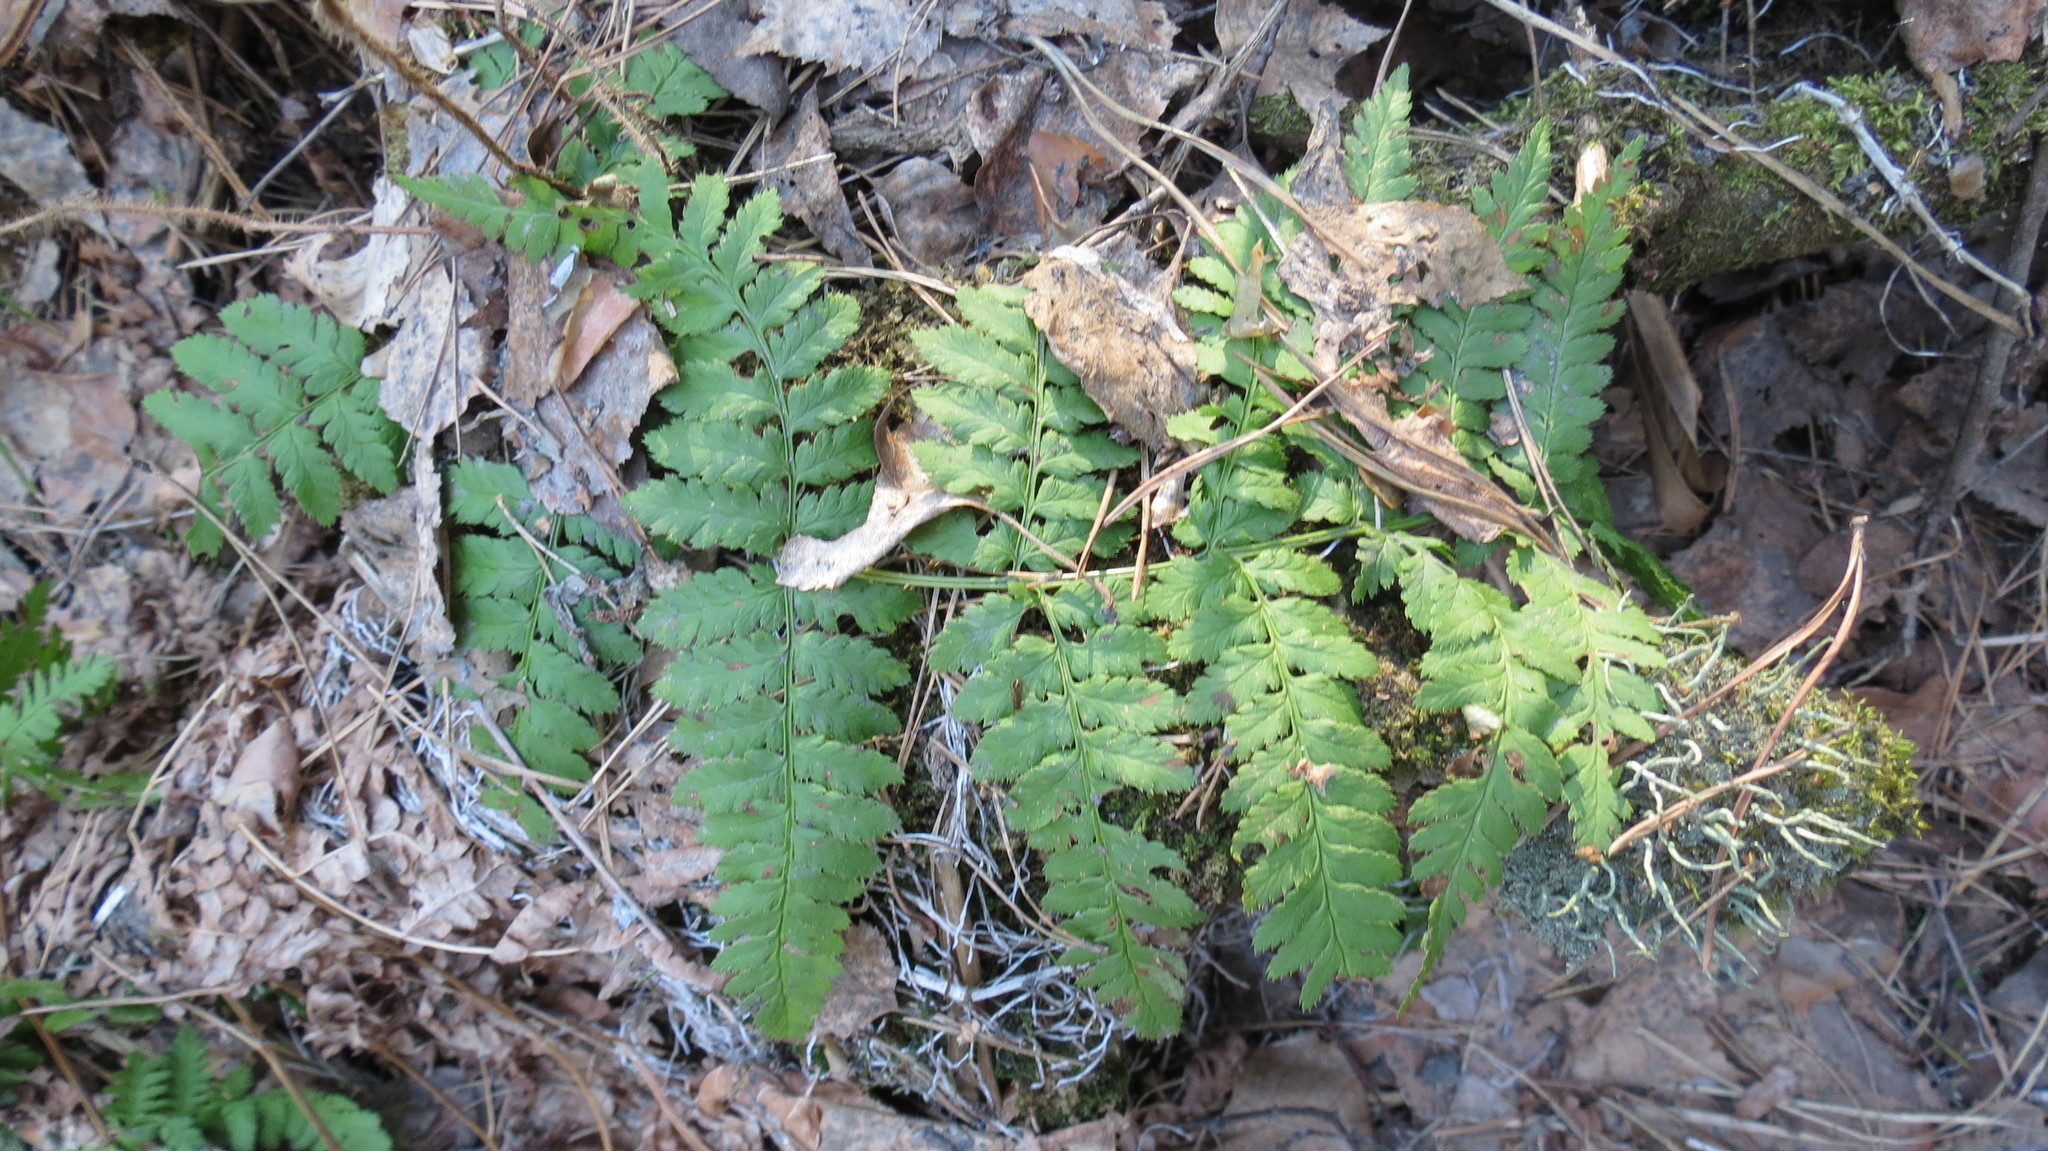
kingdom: Plantae
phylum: Tracheophyta
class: Polypodiopsida
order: Polypodiales
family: Dryopteridaceae
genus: Dryopteris
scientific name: Dryopteris carthusiana
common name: Narrow buckler-fern
